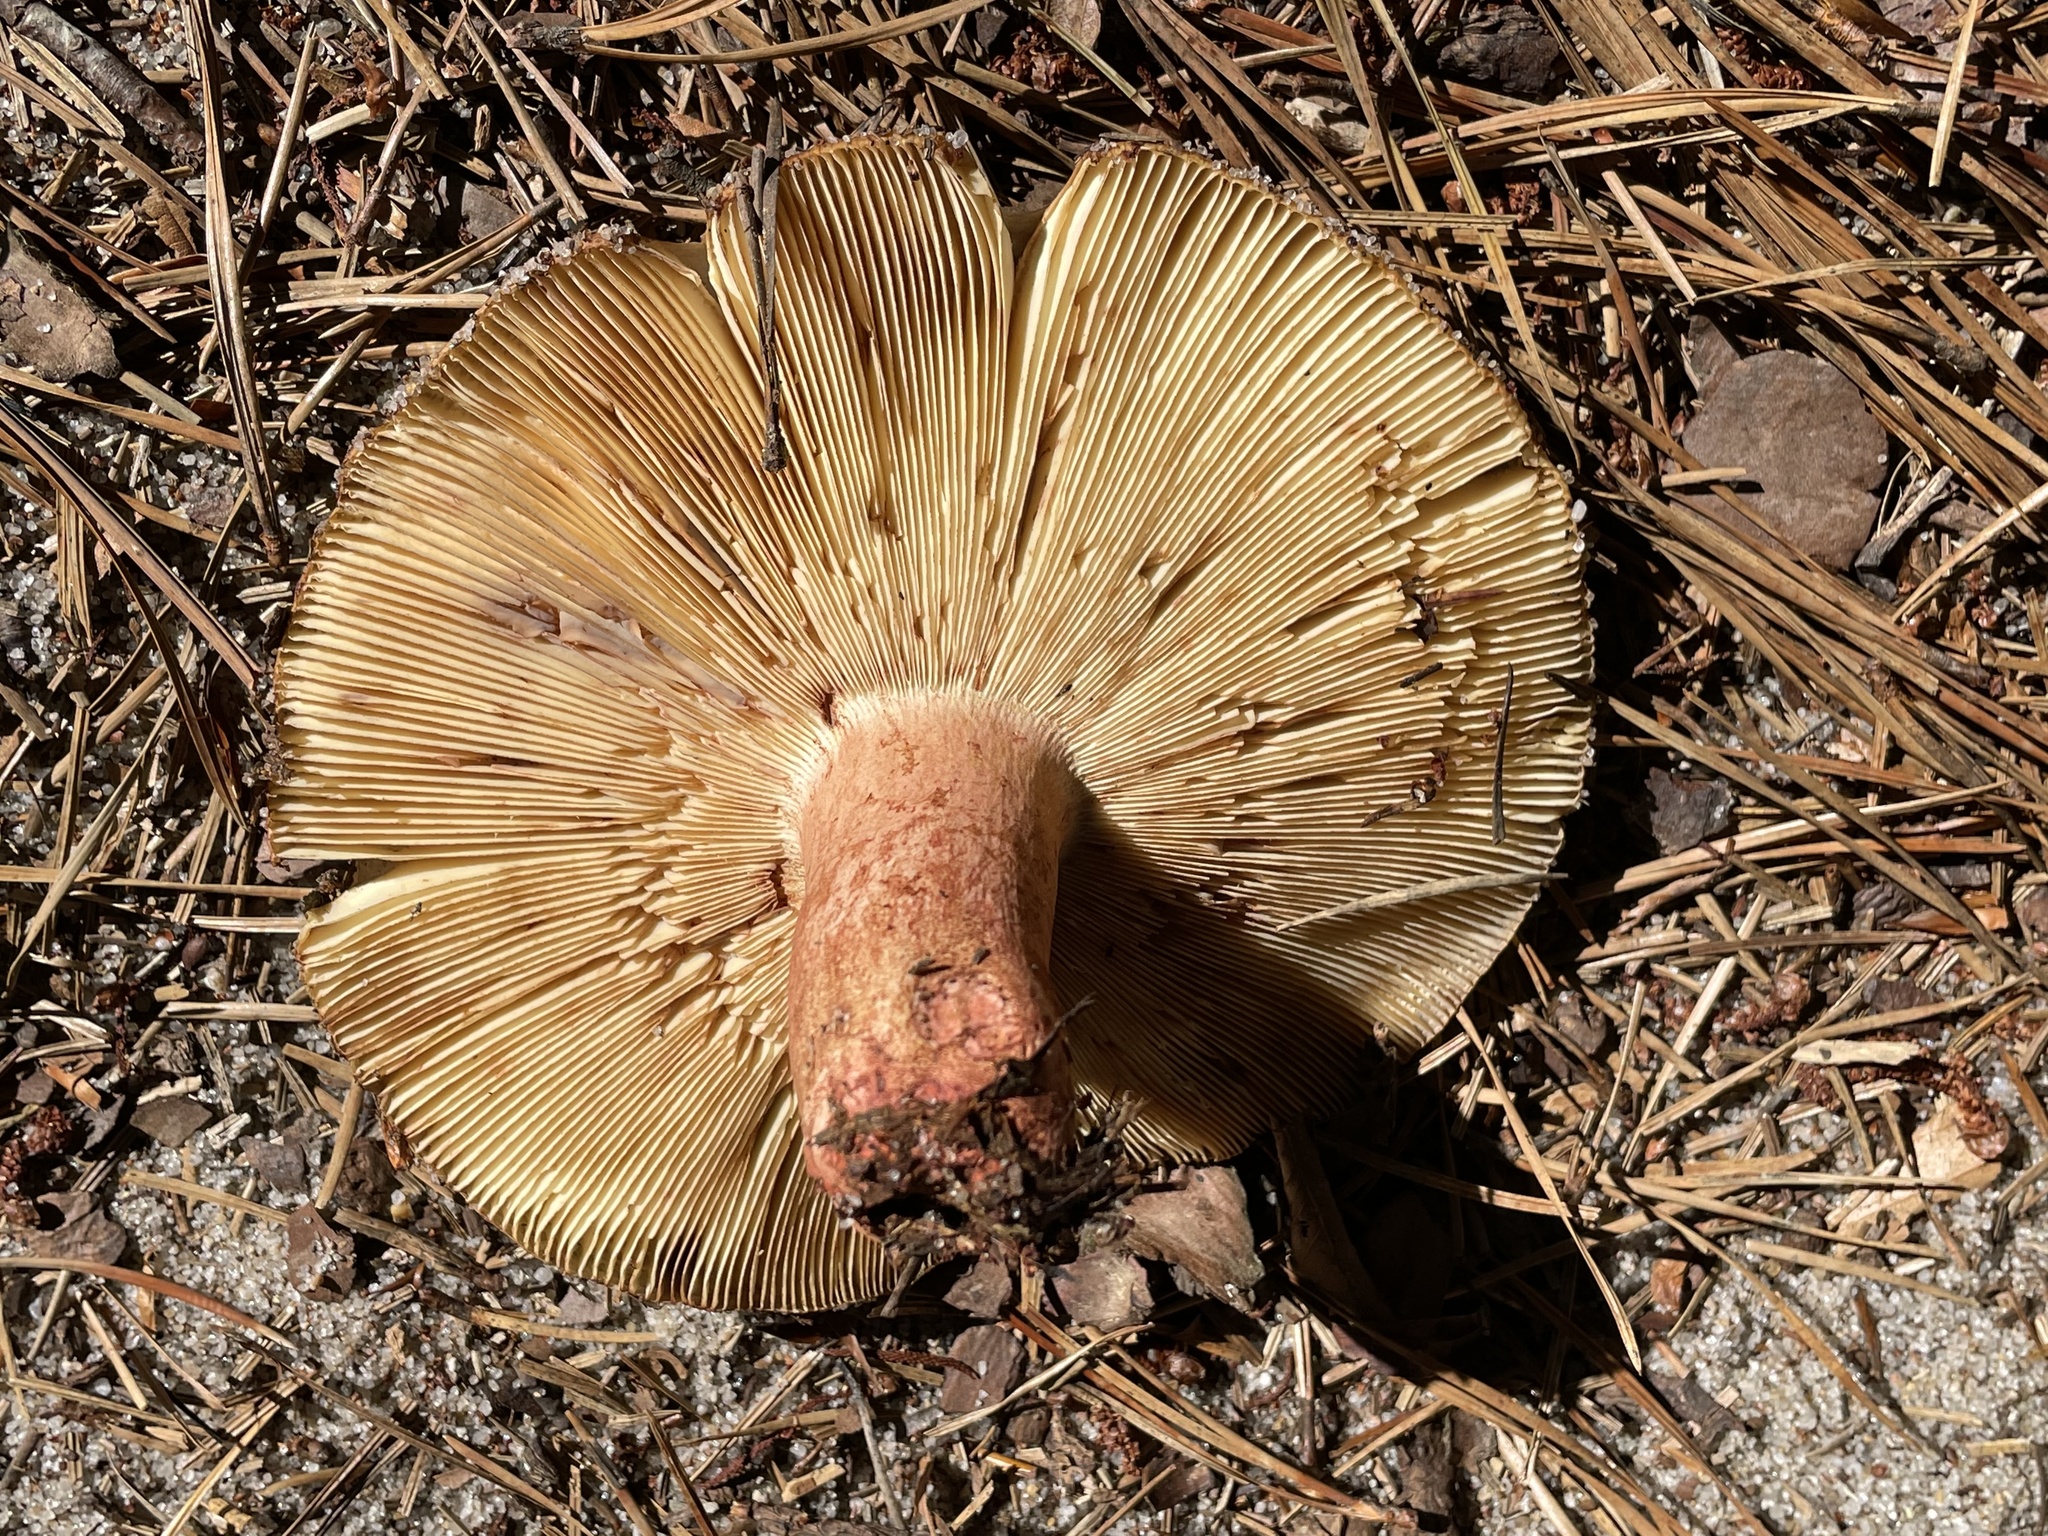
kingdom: Fungi
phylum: Basidiomycota
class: Agaricomycetes
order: Russulales
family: Russulaceae
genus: Russula
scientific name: Russula ventricosipes
